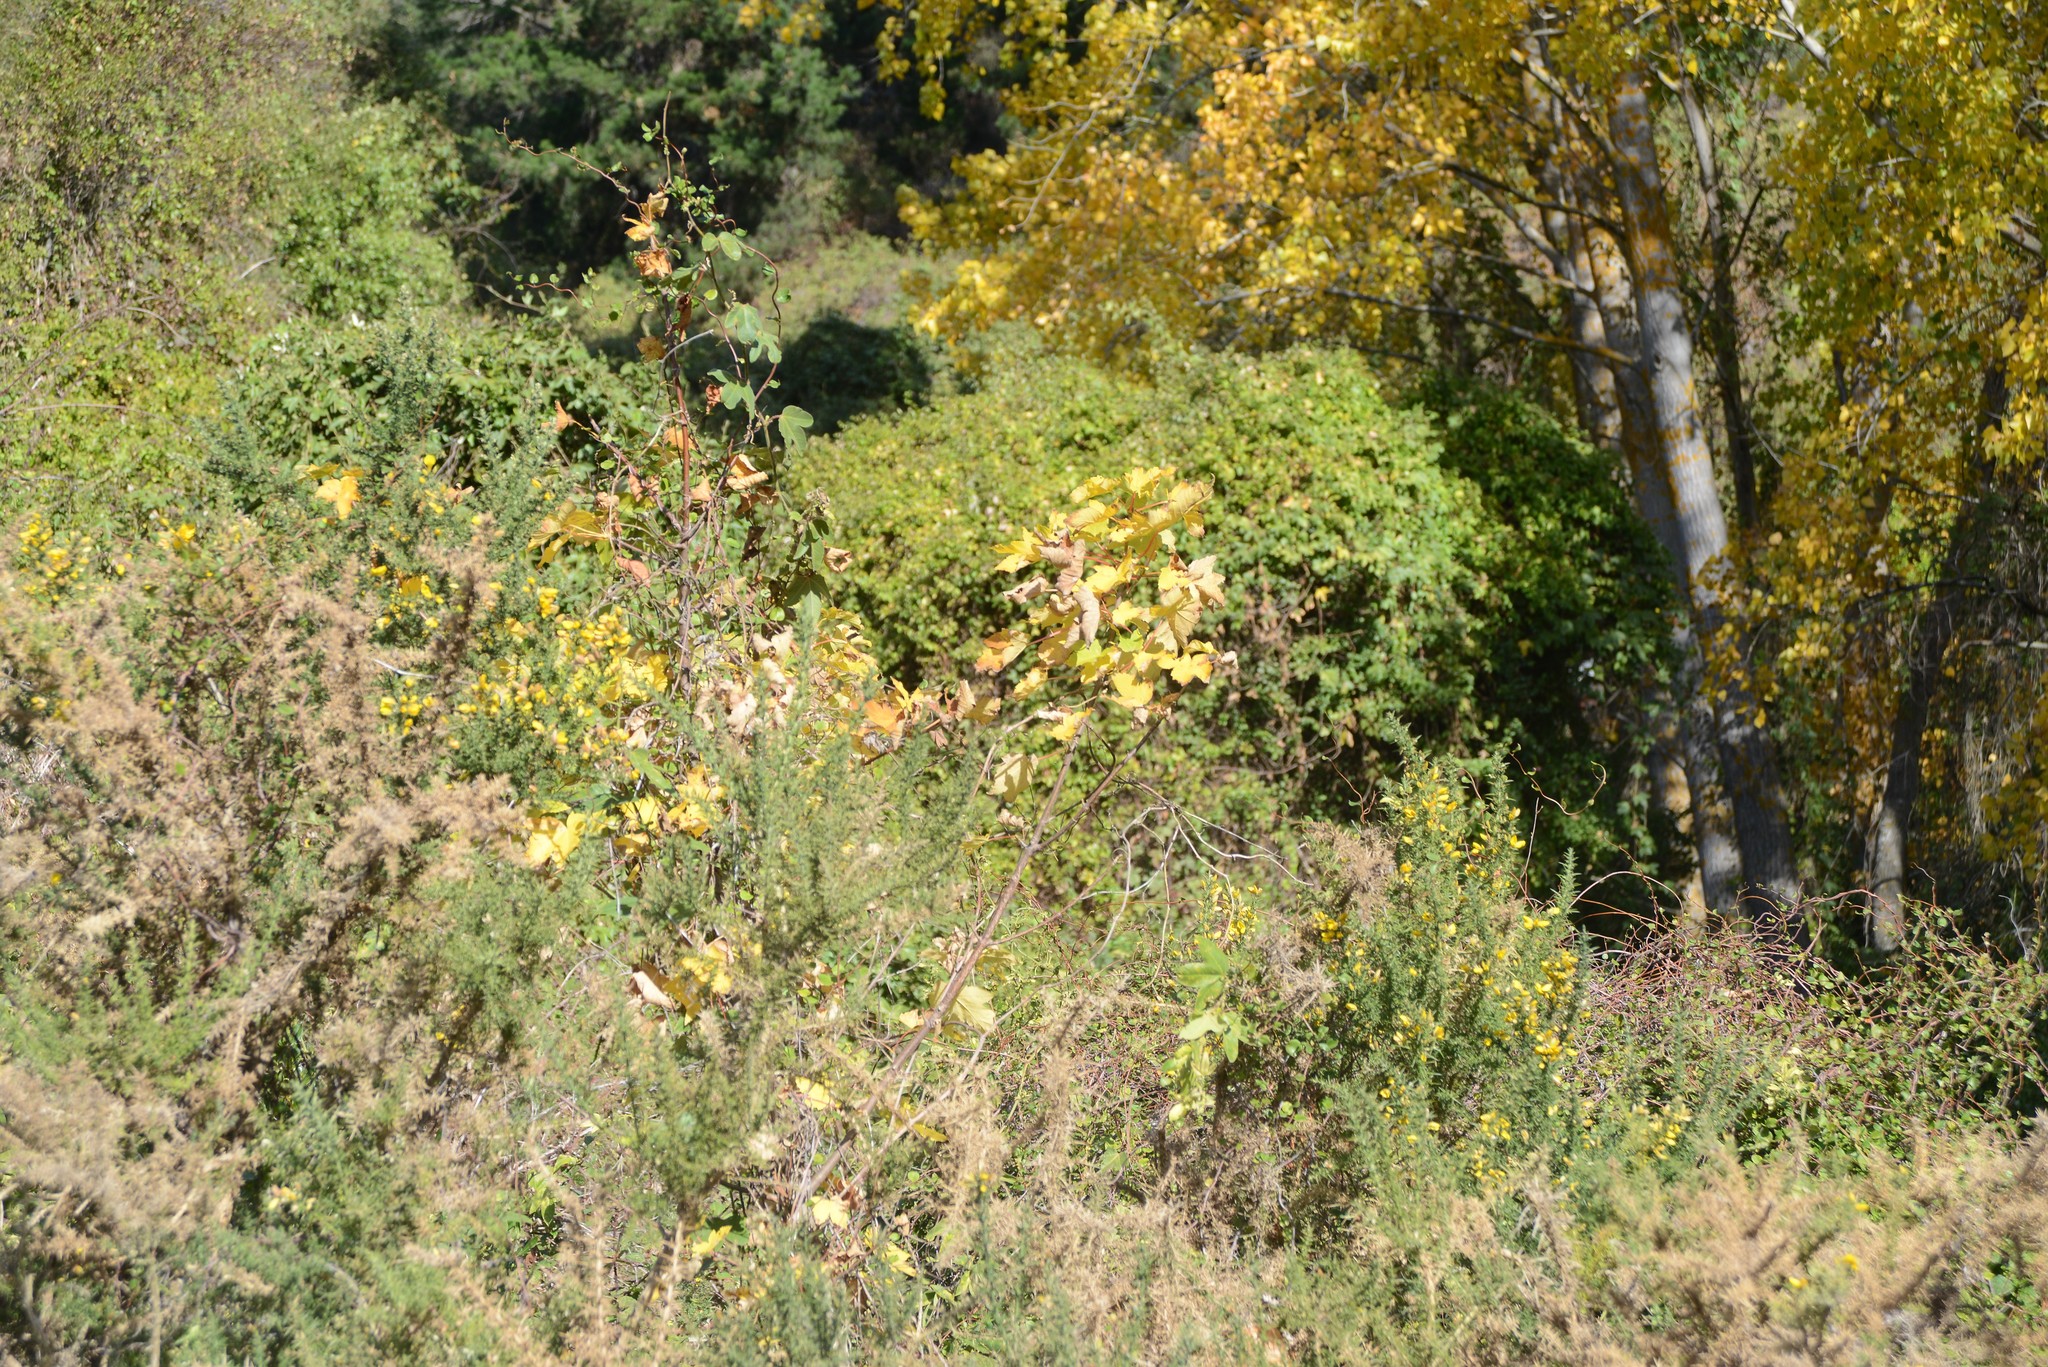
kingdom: Plantae
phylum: Tracheophyta
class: Magnoliopsida
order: Sapindales
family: Sapindaceae
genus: Acer
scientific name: Acer pseudoplatanus
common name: Sycamore
